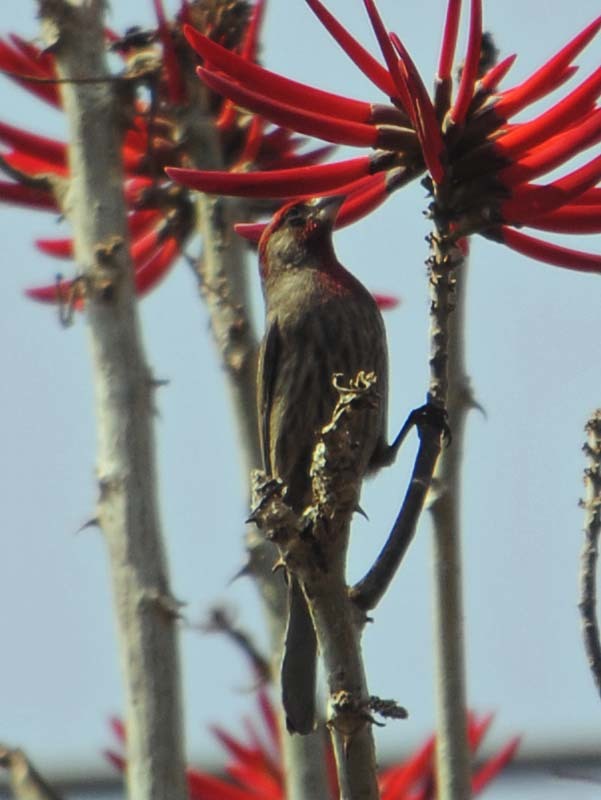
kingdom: Animalia
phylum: Chordata
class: Aves
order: Passeriformes
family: Fringillidae
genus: Haemorhous
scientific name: Haemorhous mexicanus
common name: House finch
